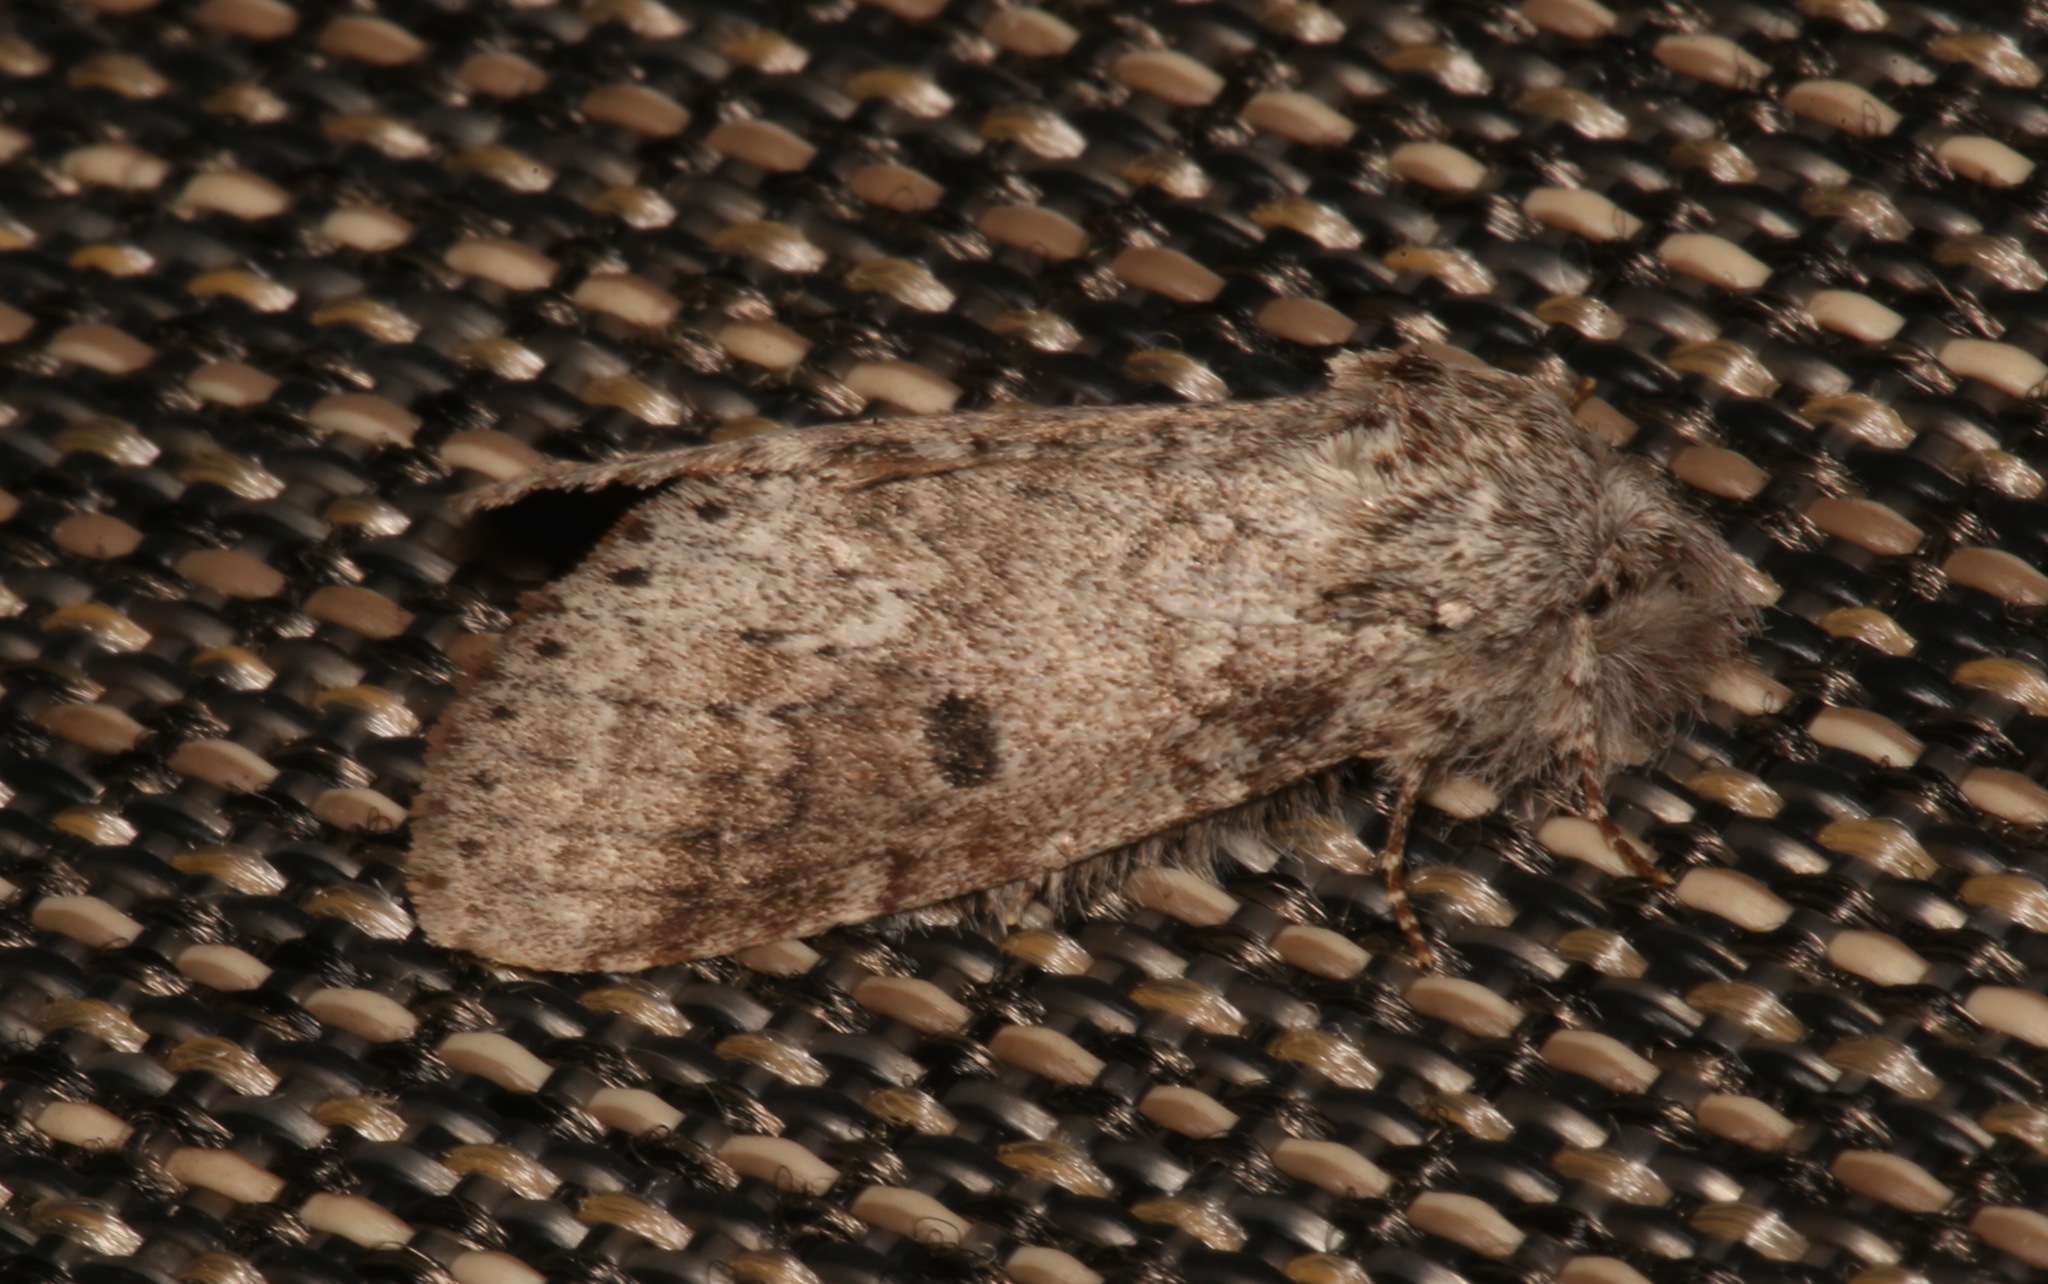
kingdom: Animalia
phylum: Arthropoda
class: Insecta
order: Lepidoptera
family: Notodontidae
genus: Lochmaeus
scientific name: Lochmaeus manteo
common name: Variable oakleaf caterpillar moth
